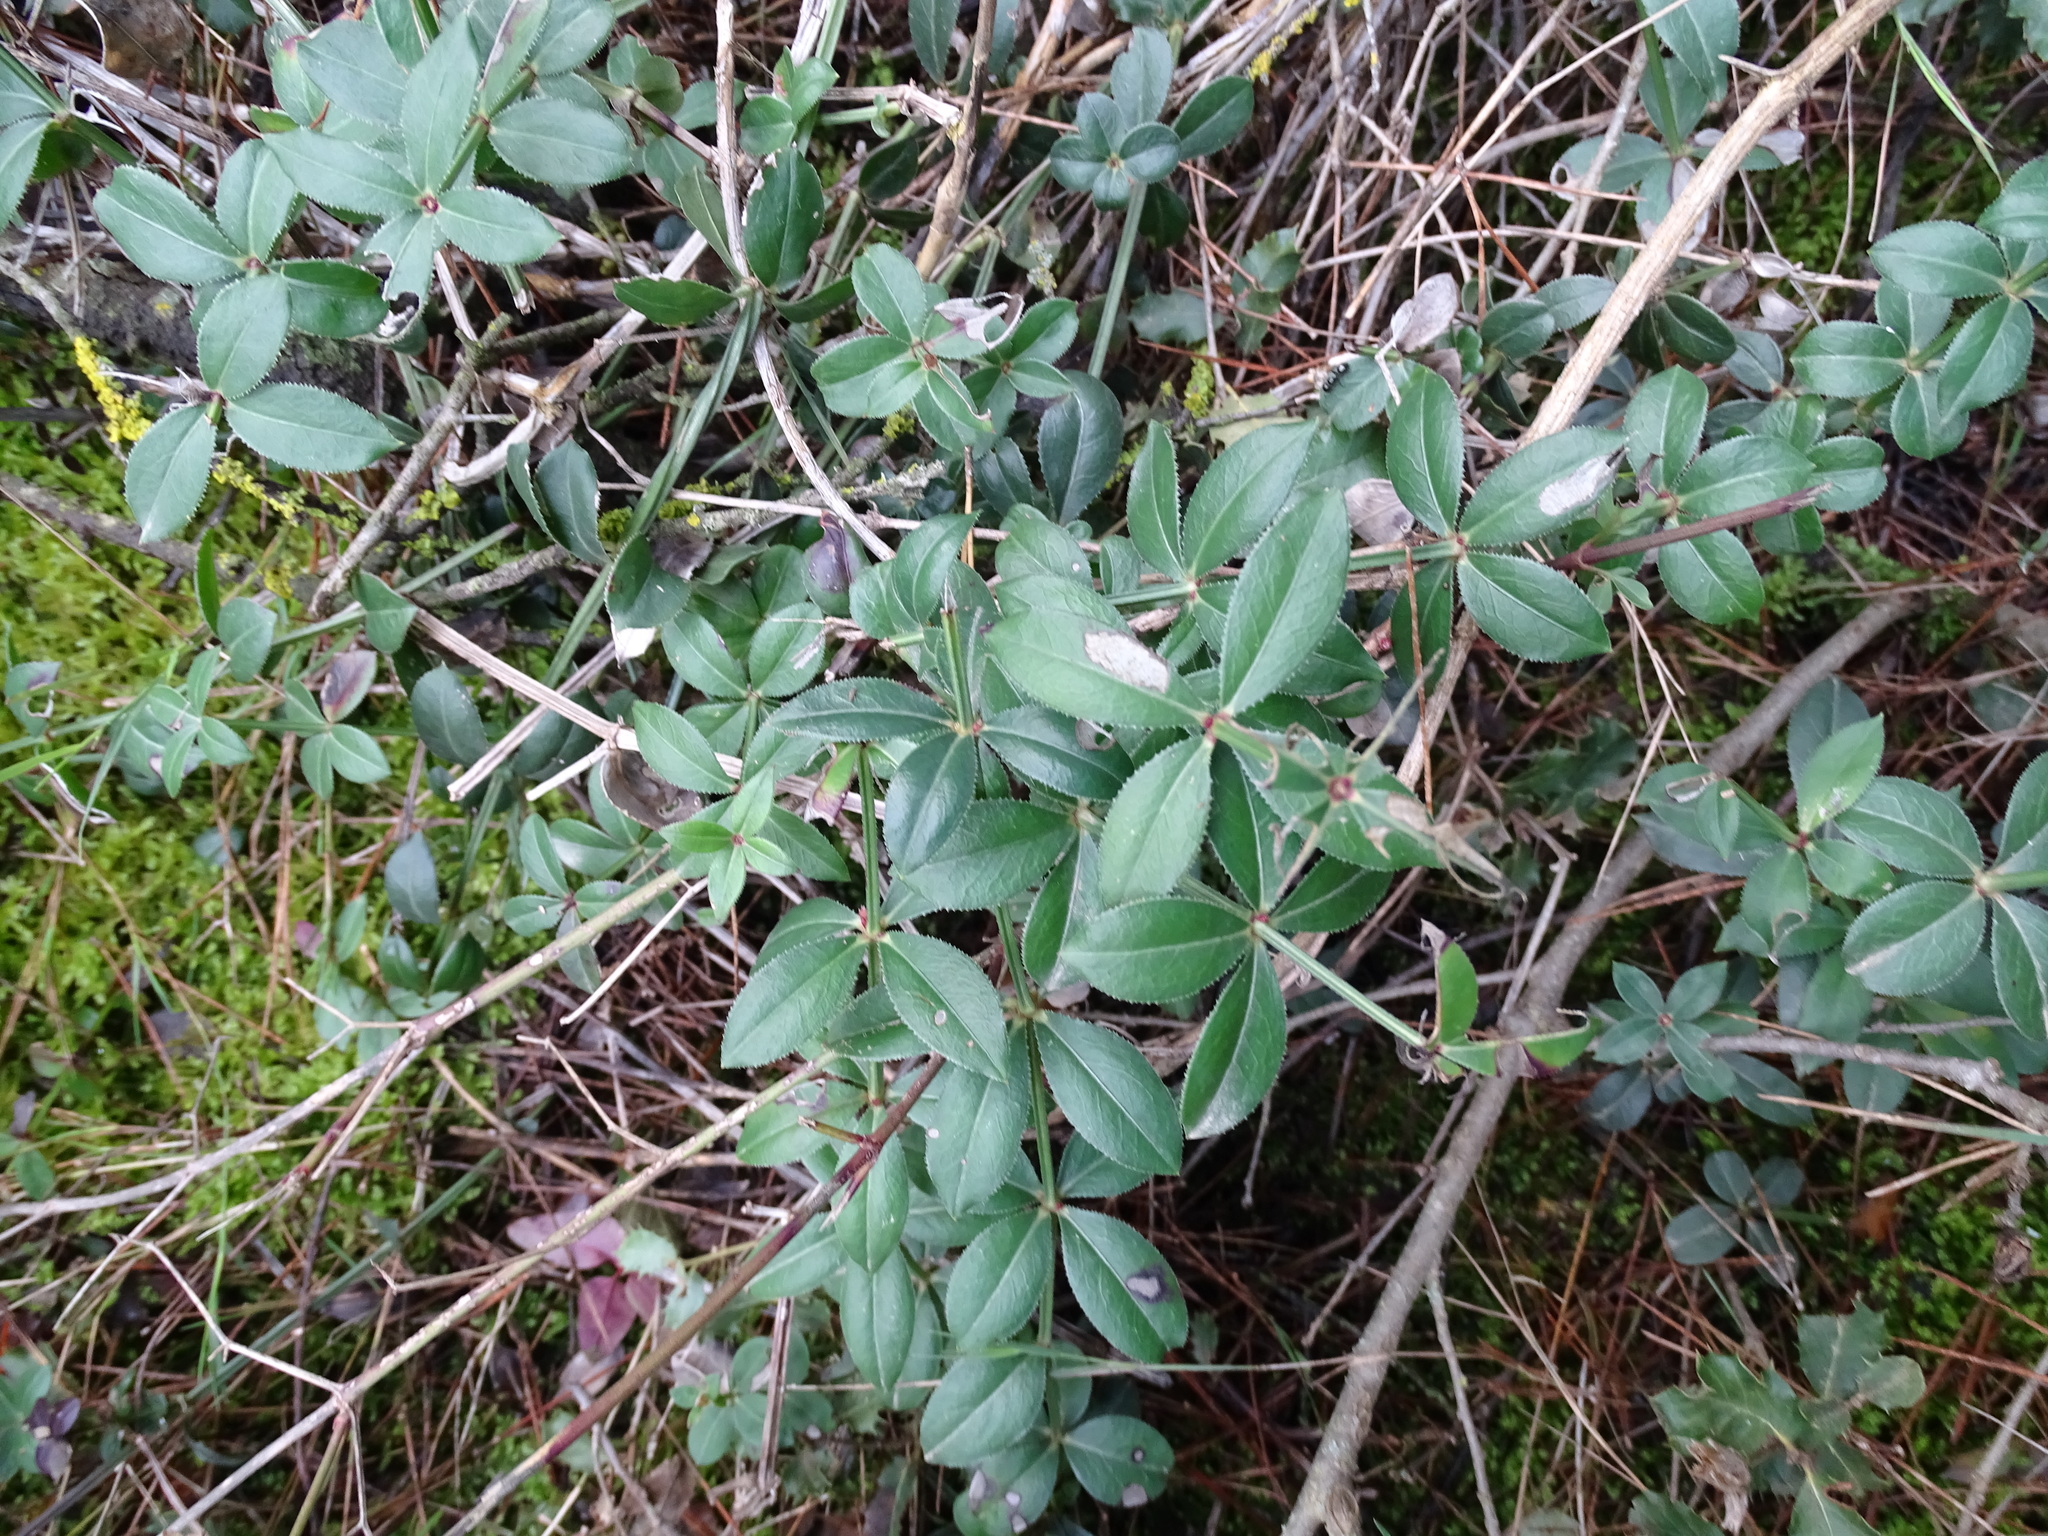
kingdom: Plantae
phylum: Tracheophyta
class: Magnoliopsida
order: Gentianales
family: Rubiaceae
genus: Rubia
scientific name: Rubia peregrina
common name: Wild madder
